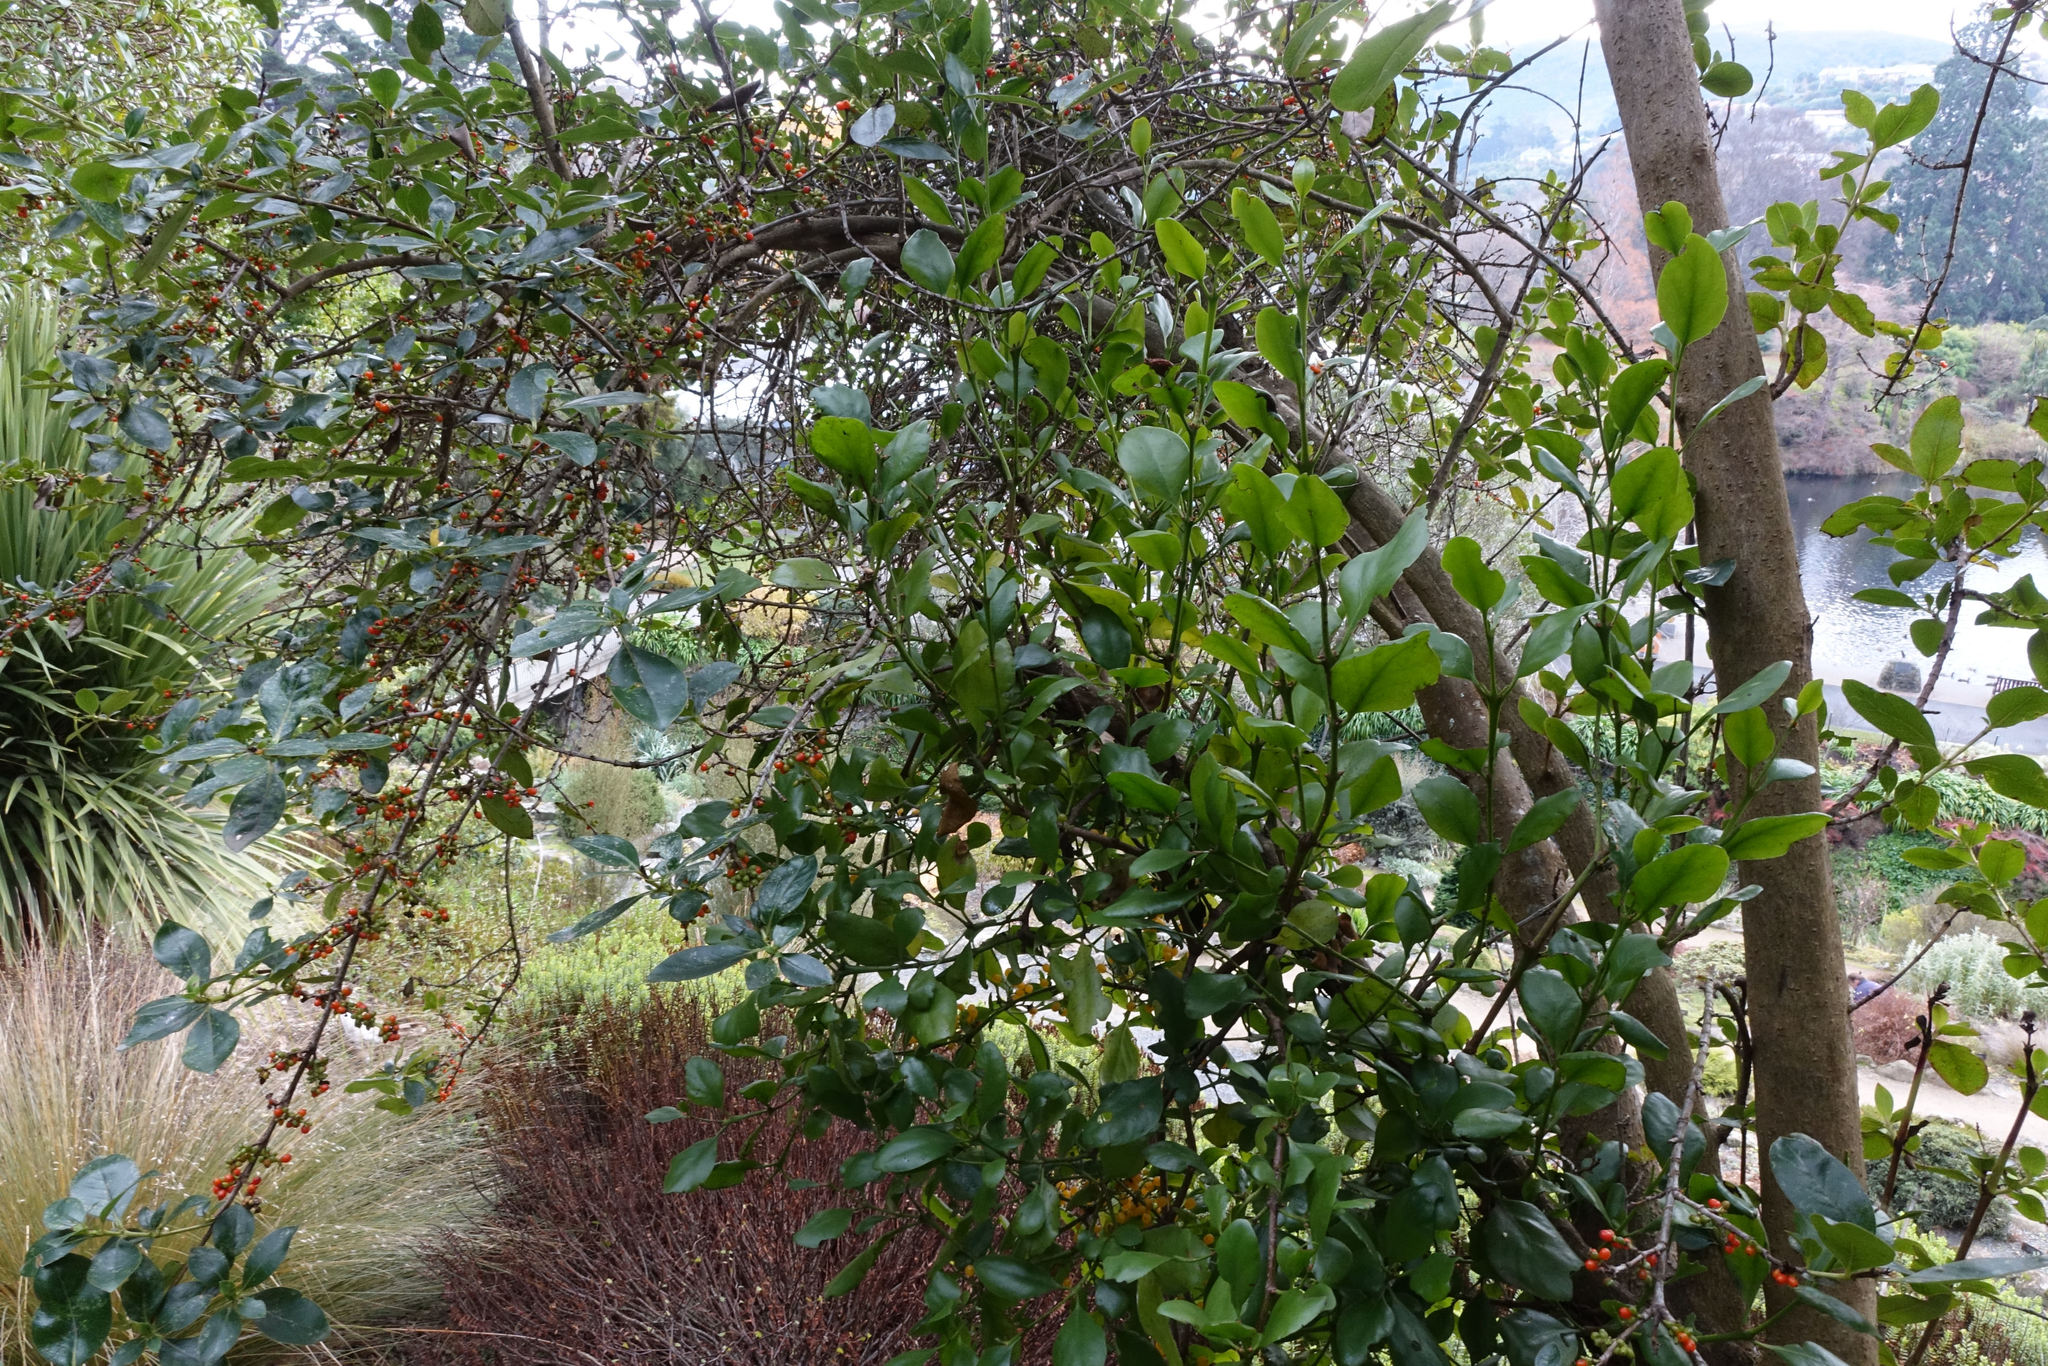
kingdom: Plantae
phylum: Tracheophyta
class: Magnoliopsida
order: Santalales
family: Loranthaceae
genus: Ileostylus
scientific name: Ileostylus micranthus
